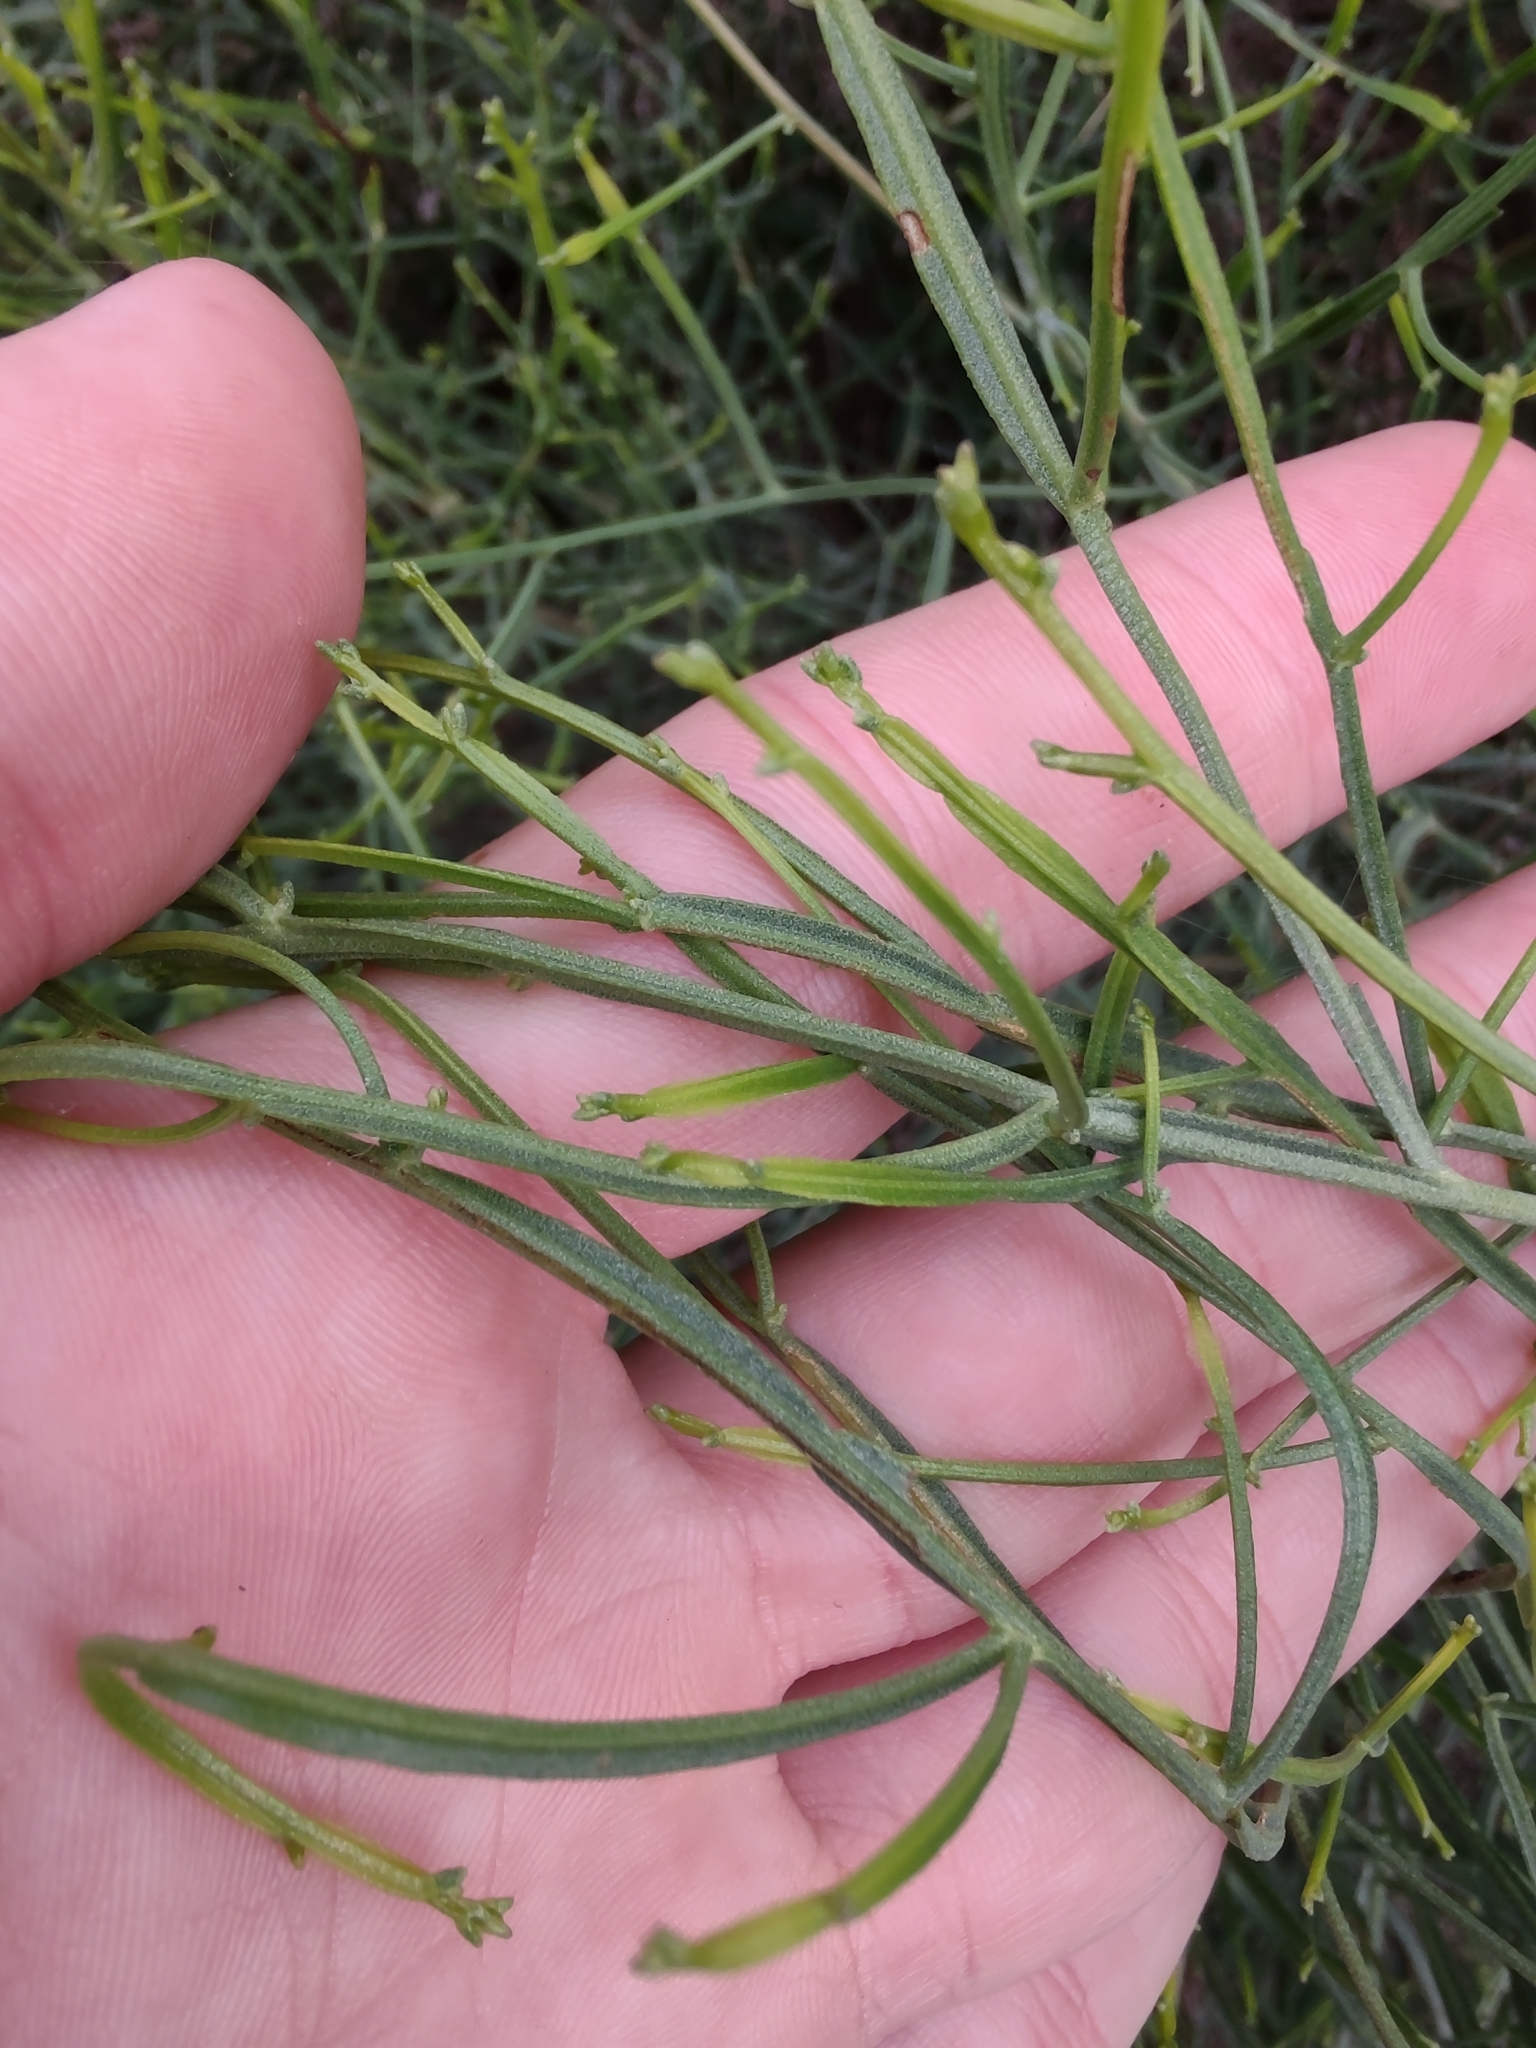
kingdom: Plantae
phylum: Tracheophyta
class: Magnoliopsida
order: Asterales
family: Asteraceae
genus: Baccharis
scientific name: Baccharis articulata
